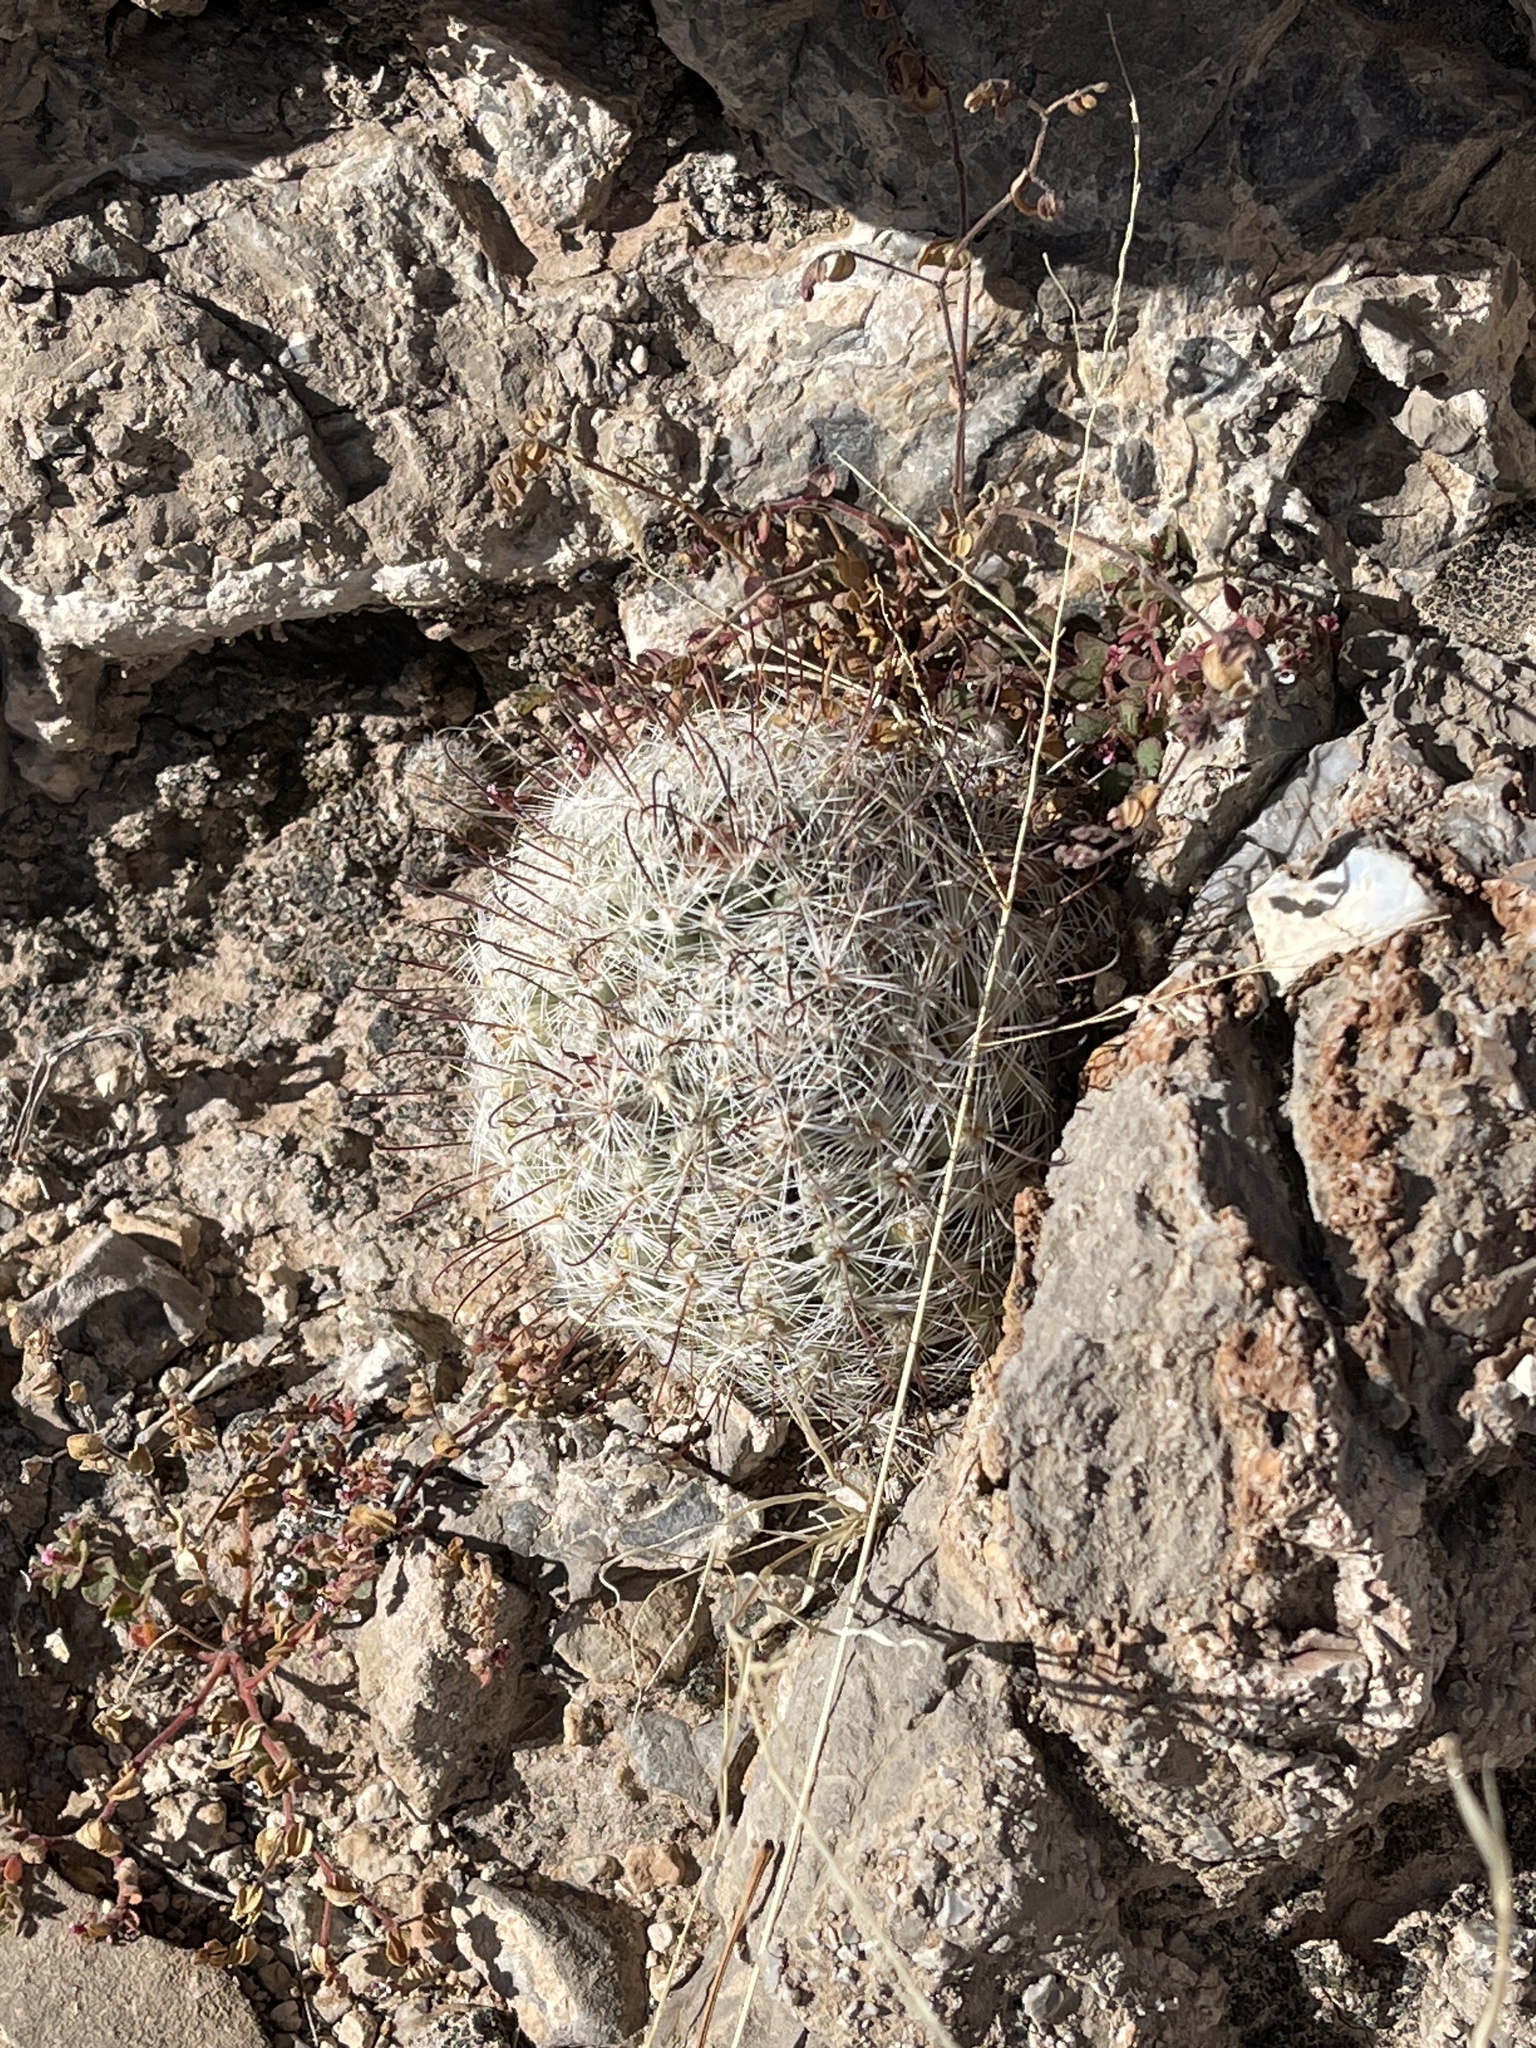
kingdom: Plantae
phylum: Tracheophyta
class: Magnoliopsida
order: Caryophyllales
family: Cactaceae
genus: Cochemiea
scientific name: Cochemiea grahamii
